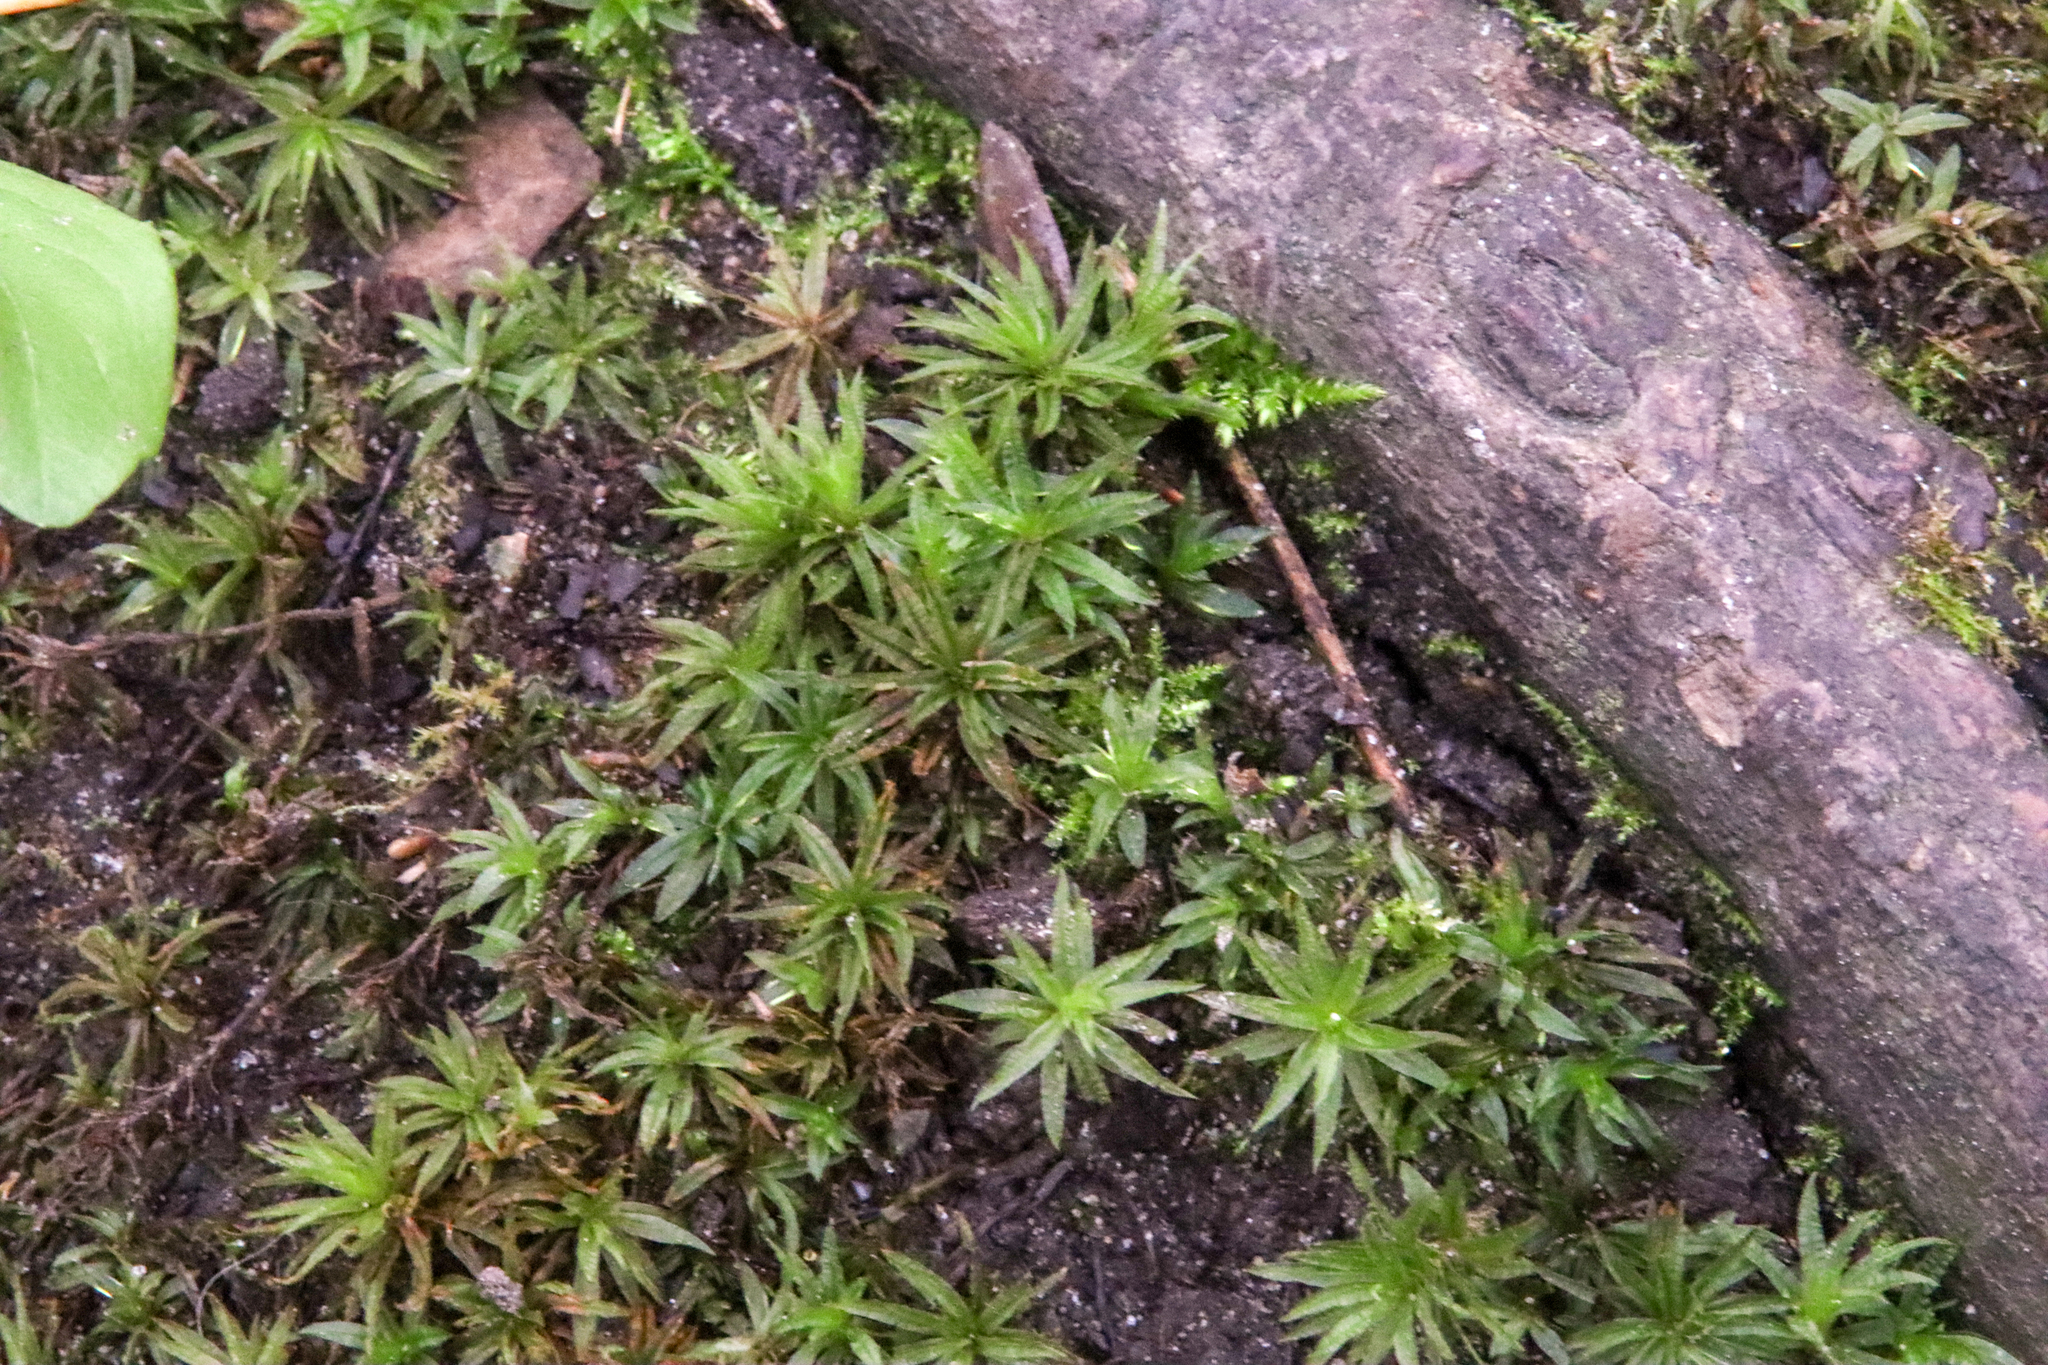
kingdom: Plantae
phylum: Bryophyta
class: Polytrichopsida
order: Polytrichales
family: Polytrichaceae
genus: Atrichum
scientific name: Atrichum undulatum
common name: Common smoothcap
